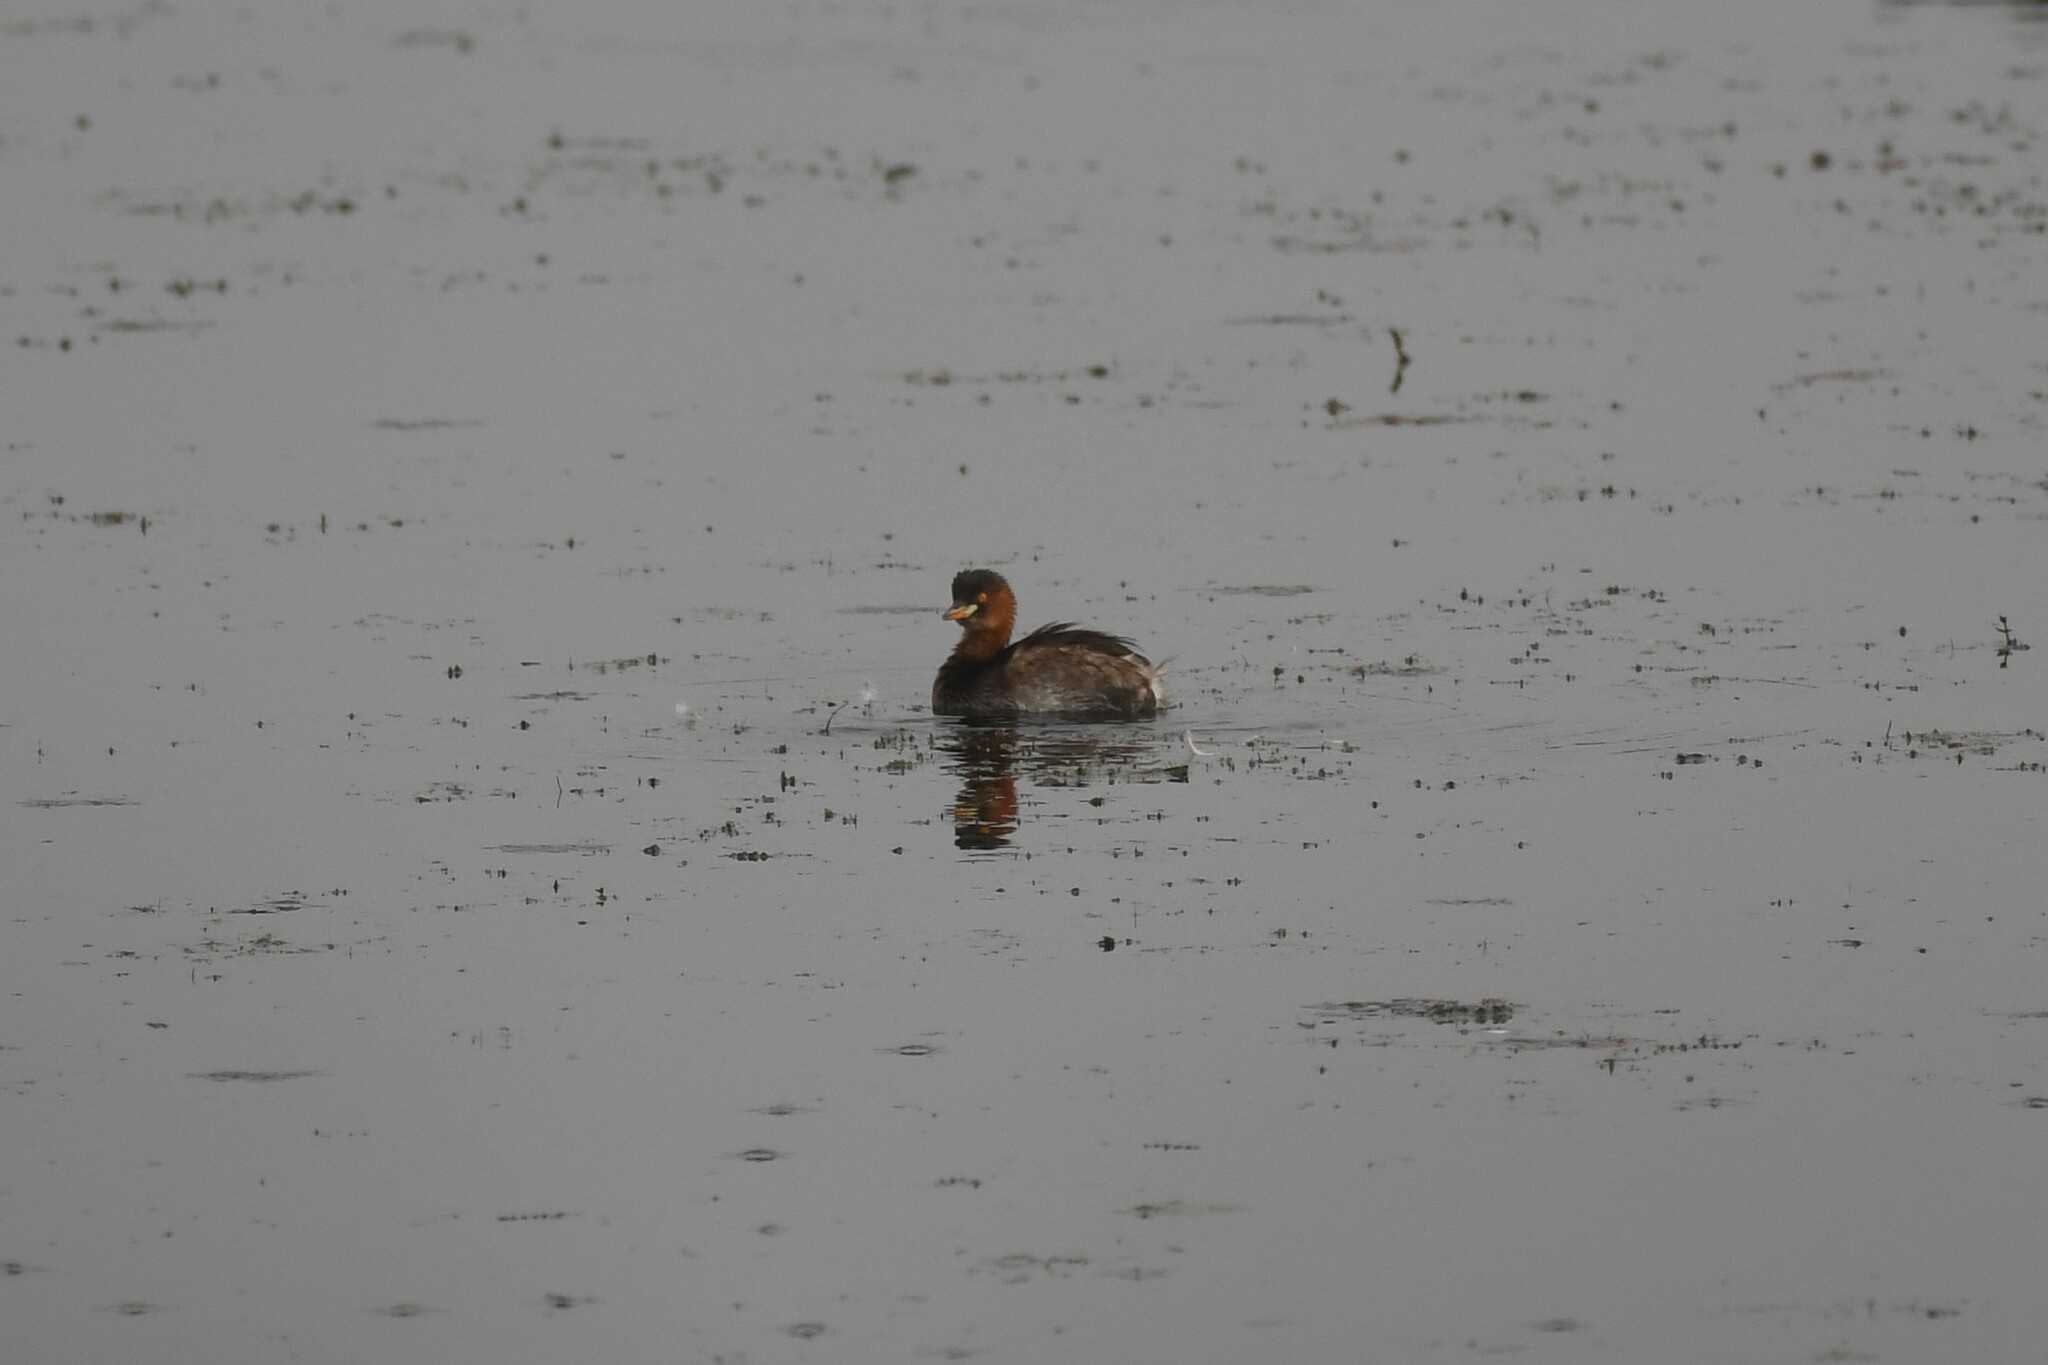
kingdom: Animalia
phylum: Chordata
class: Aves
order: Podicipediformes
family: Podicipedidae
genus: Tachybaptus
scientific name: Tachybaptus ruficollis
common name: Little grebe
